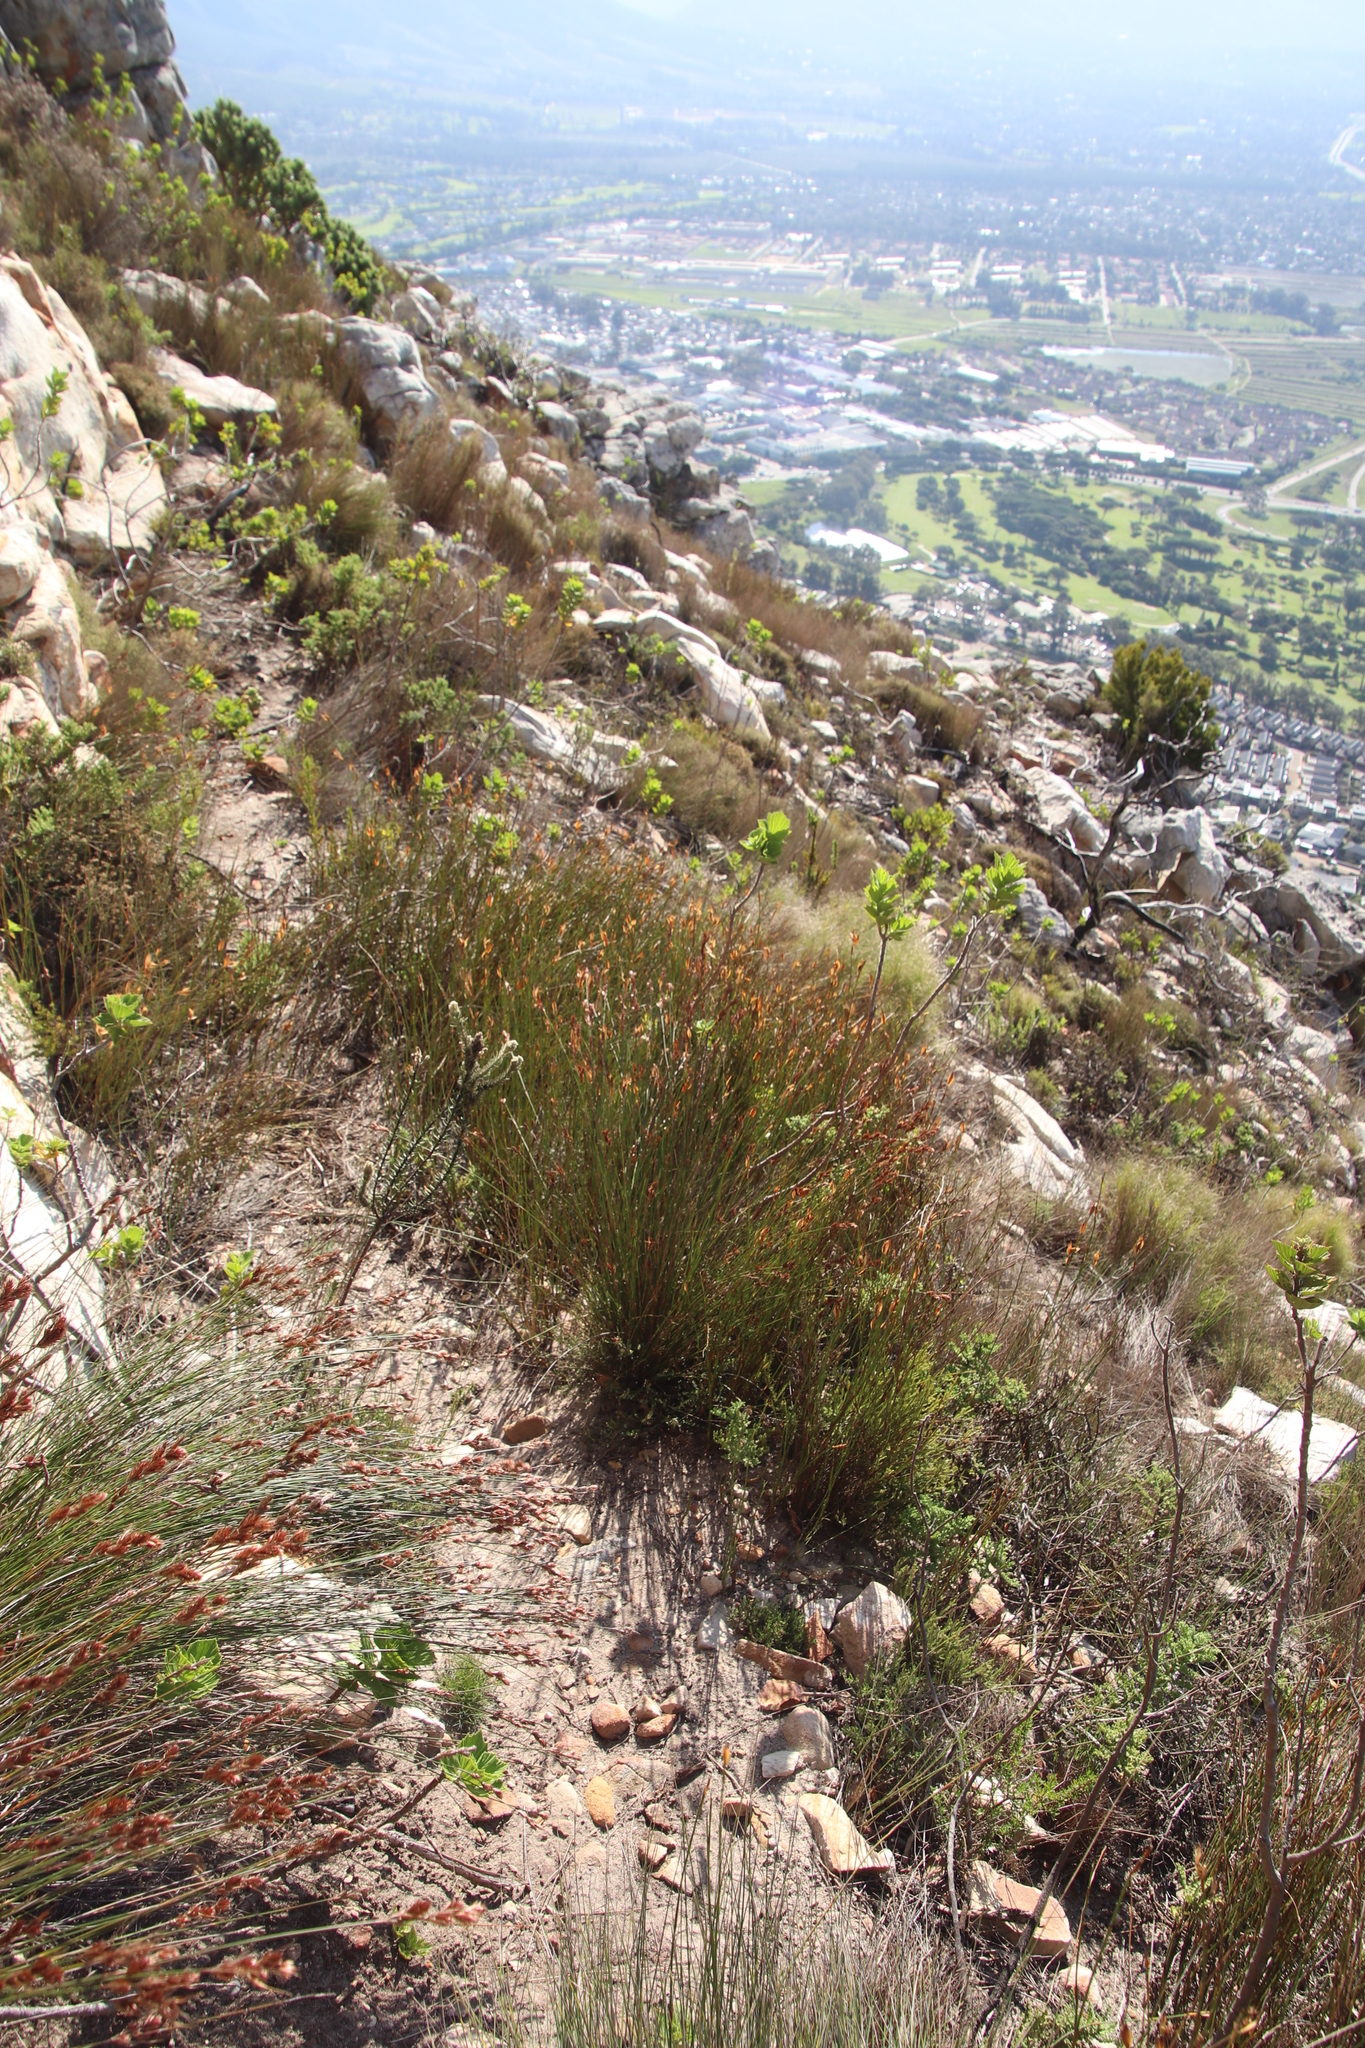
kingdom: Plantae
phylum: Tracheophyta
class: Liliopsida
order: Poales
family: Restionaceae
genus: Willdenowia
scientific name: Willdenowia glomerata
